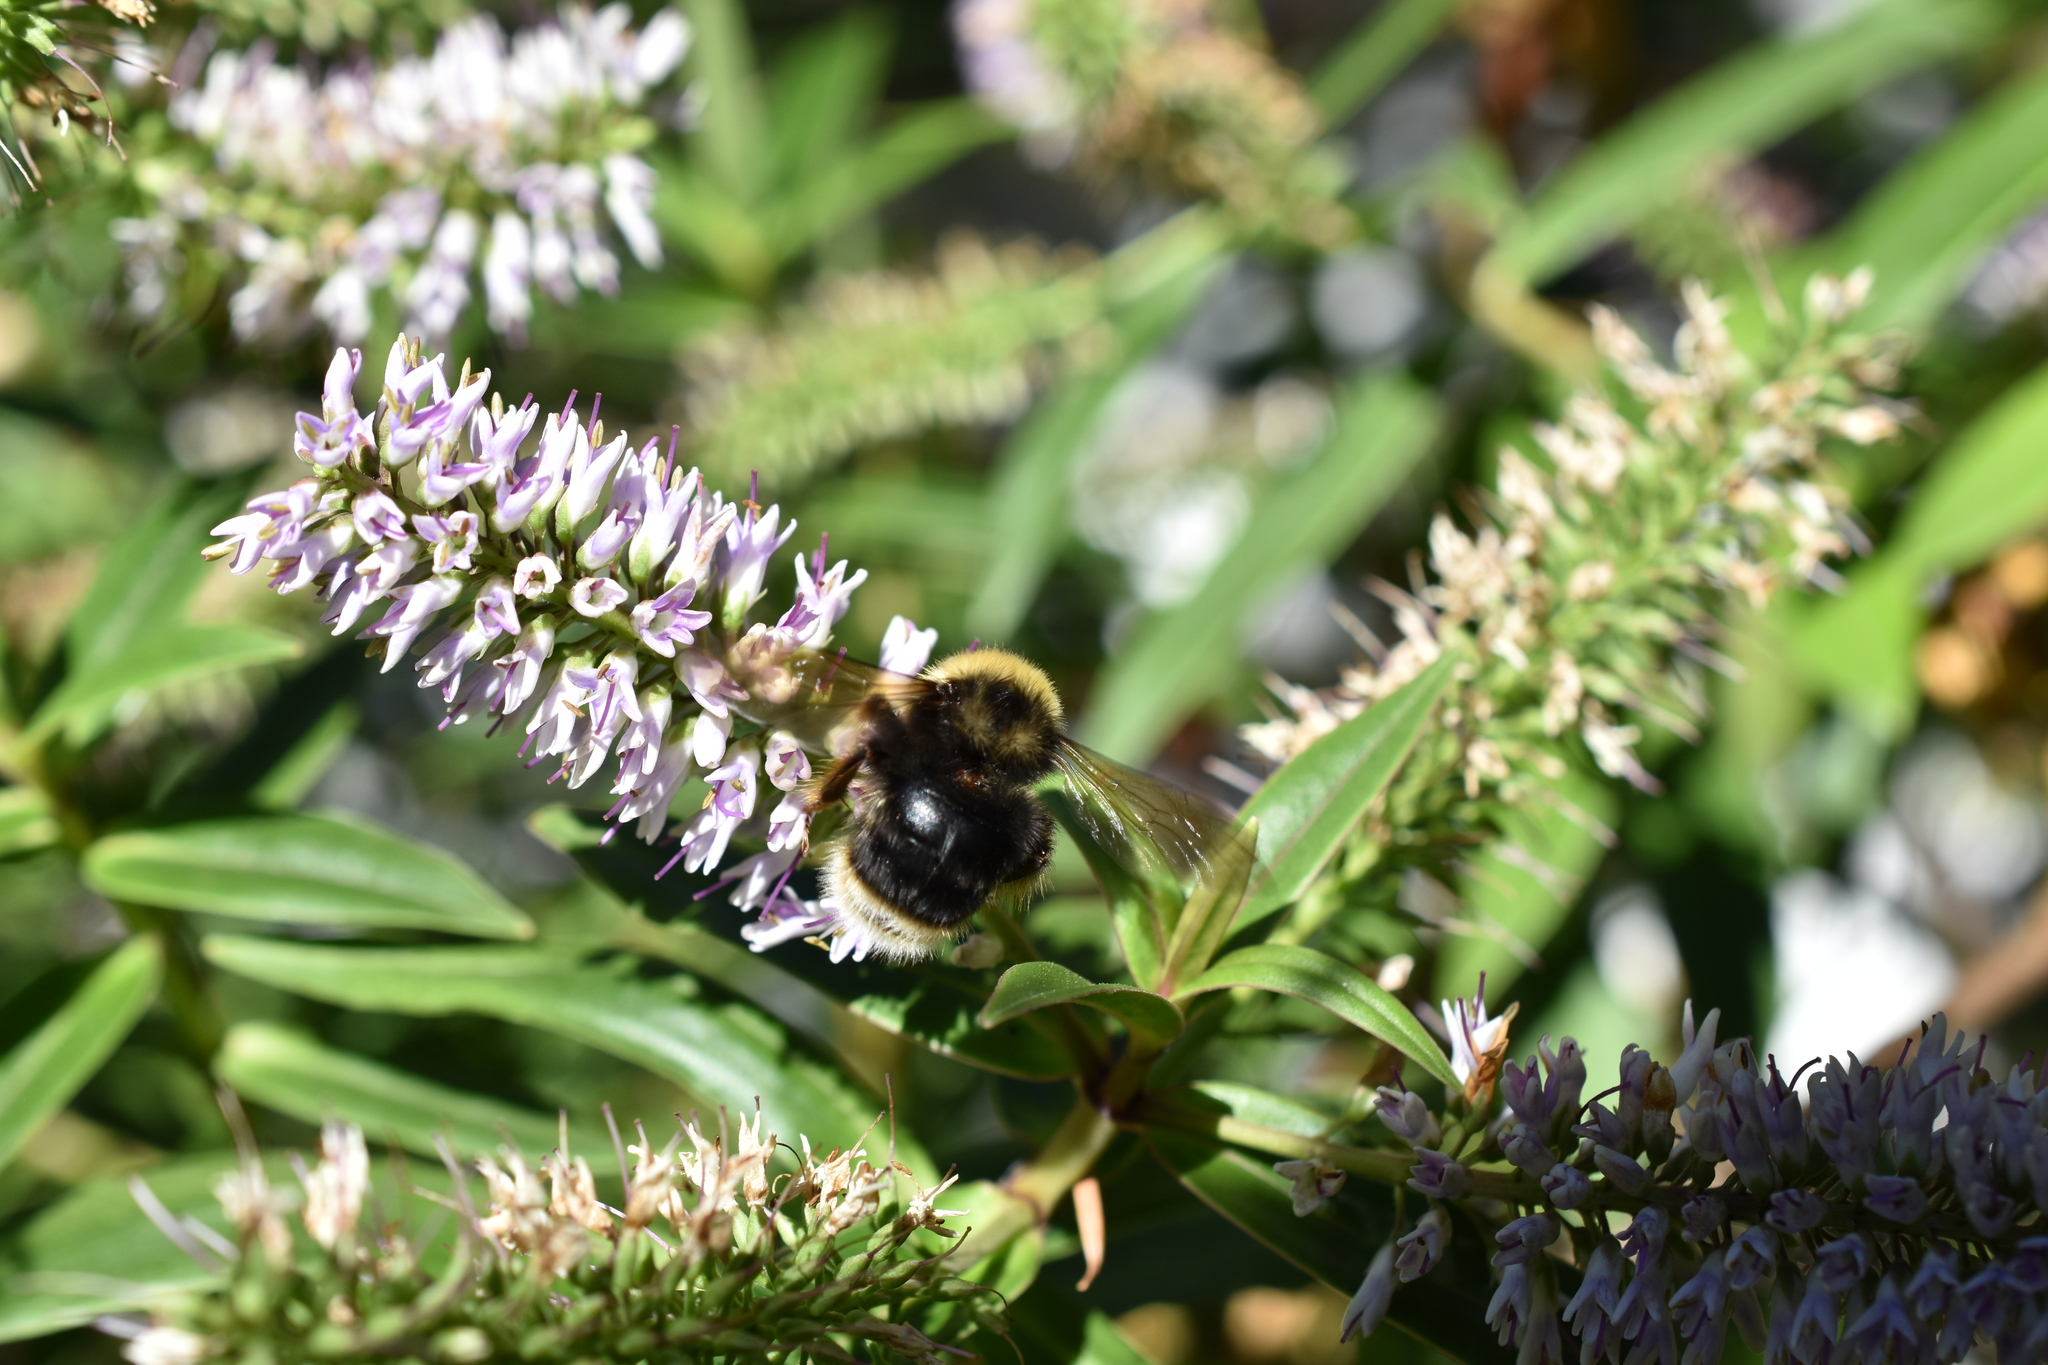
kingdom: Animalia
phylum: Arthropoda
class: Insecta
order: Hymenoptera
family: Apidae
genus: Bombus
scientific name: Bombus occidentalis
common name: Western bumble bee
